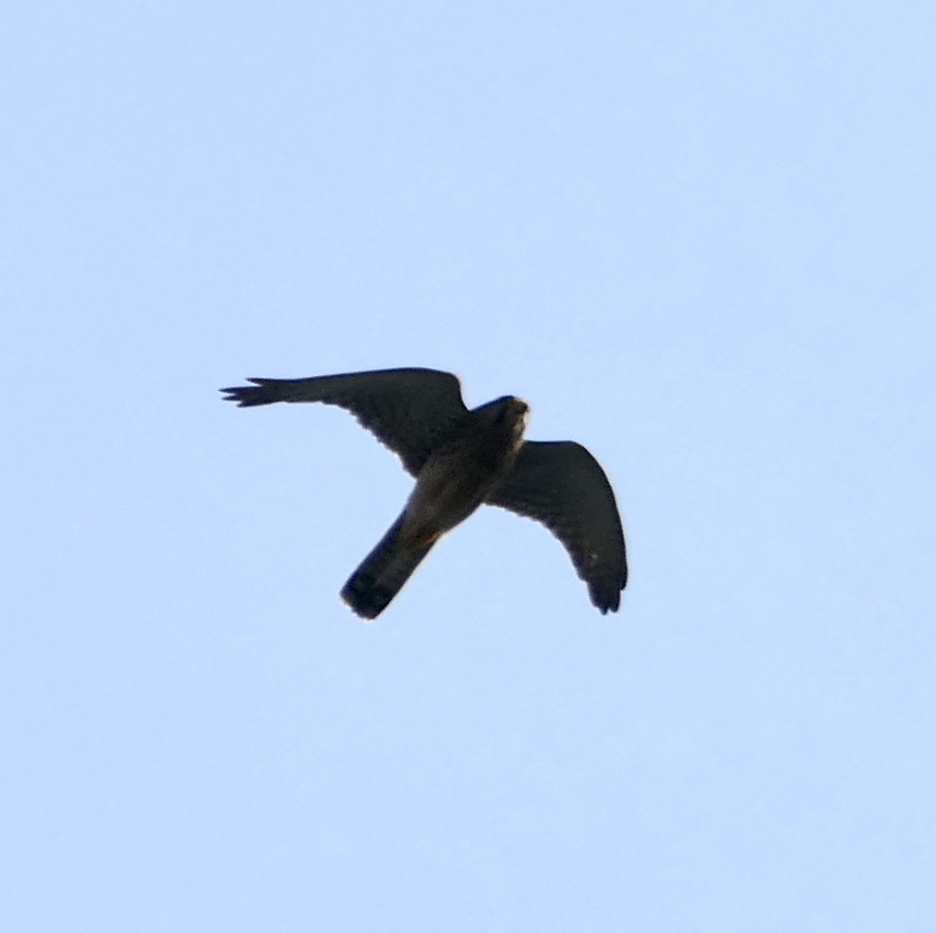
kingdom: Animalia
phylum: Chordata
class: Aves
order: Falconiformes
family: Falconidae
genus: Falco
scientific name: Falco tinnunculus
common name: Common kestrel
